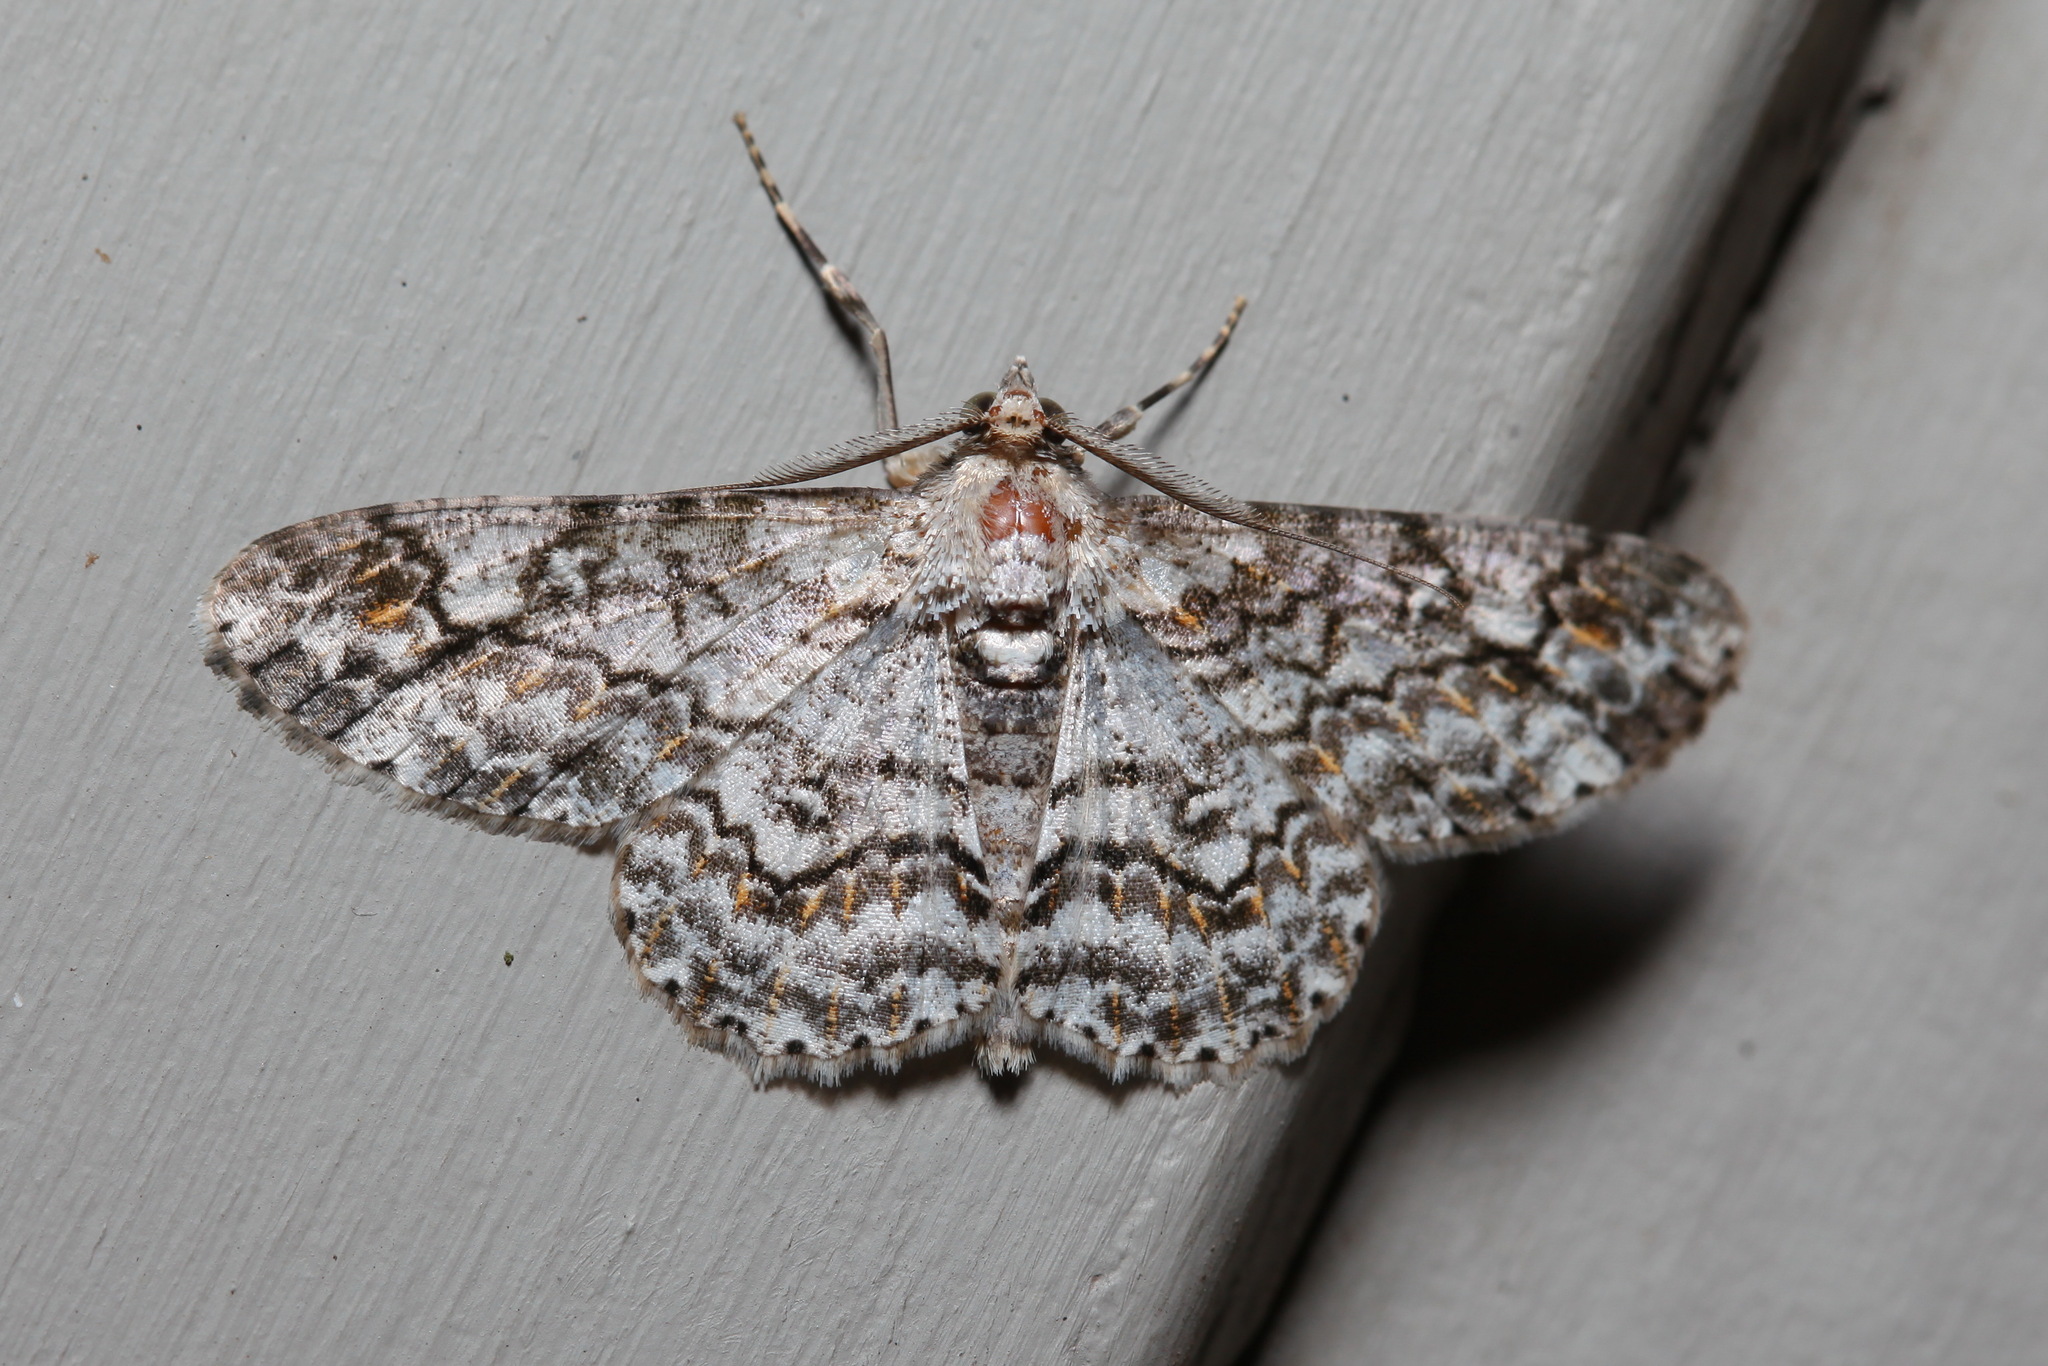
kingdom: Animalia
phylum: Arthropoda
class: Insecta
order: Lepidoptera
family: Geometridae
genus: Ascotis
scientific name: Ascotis reciprocaria
